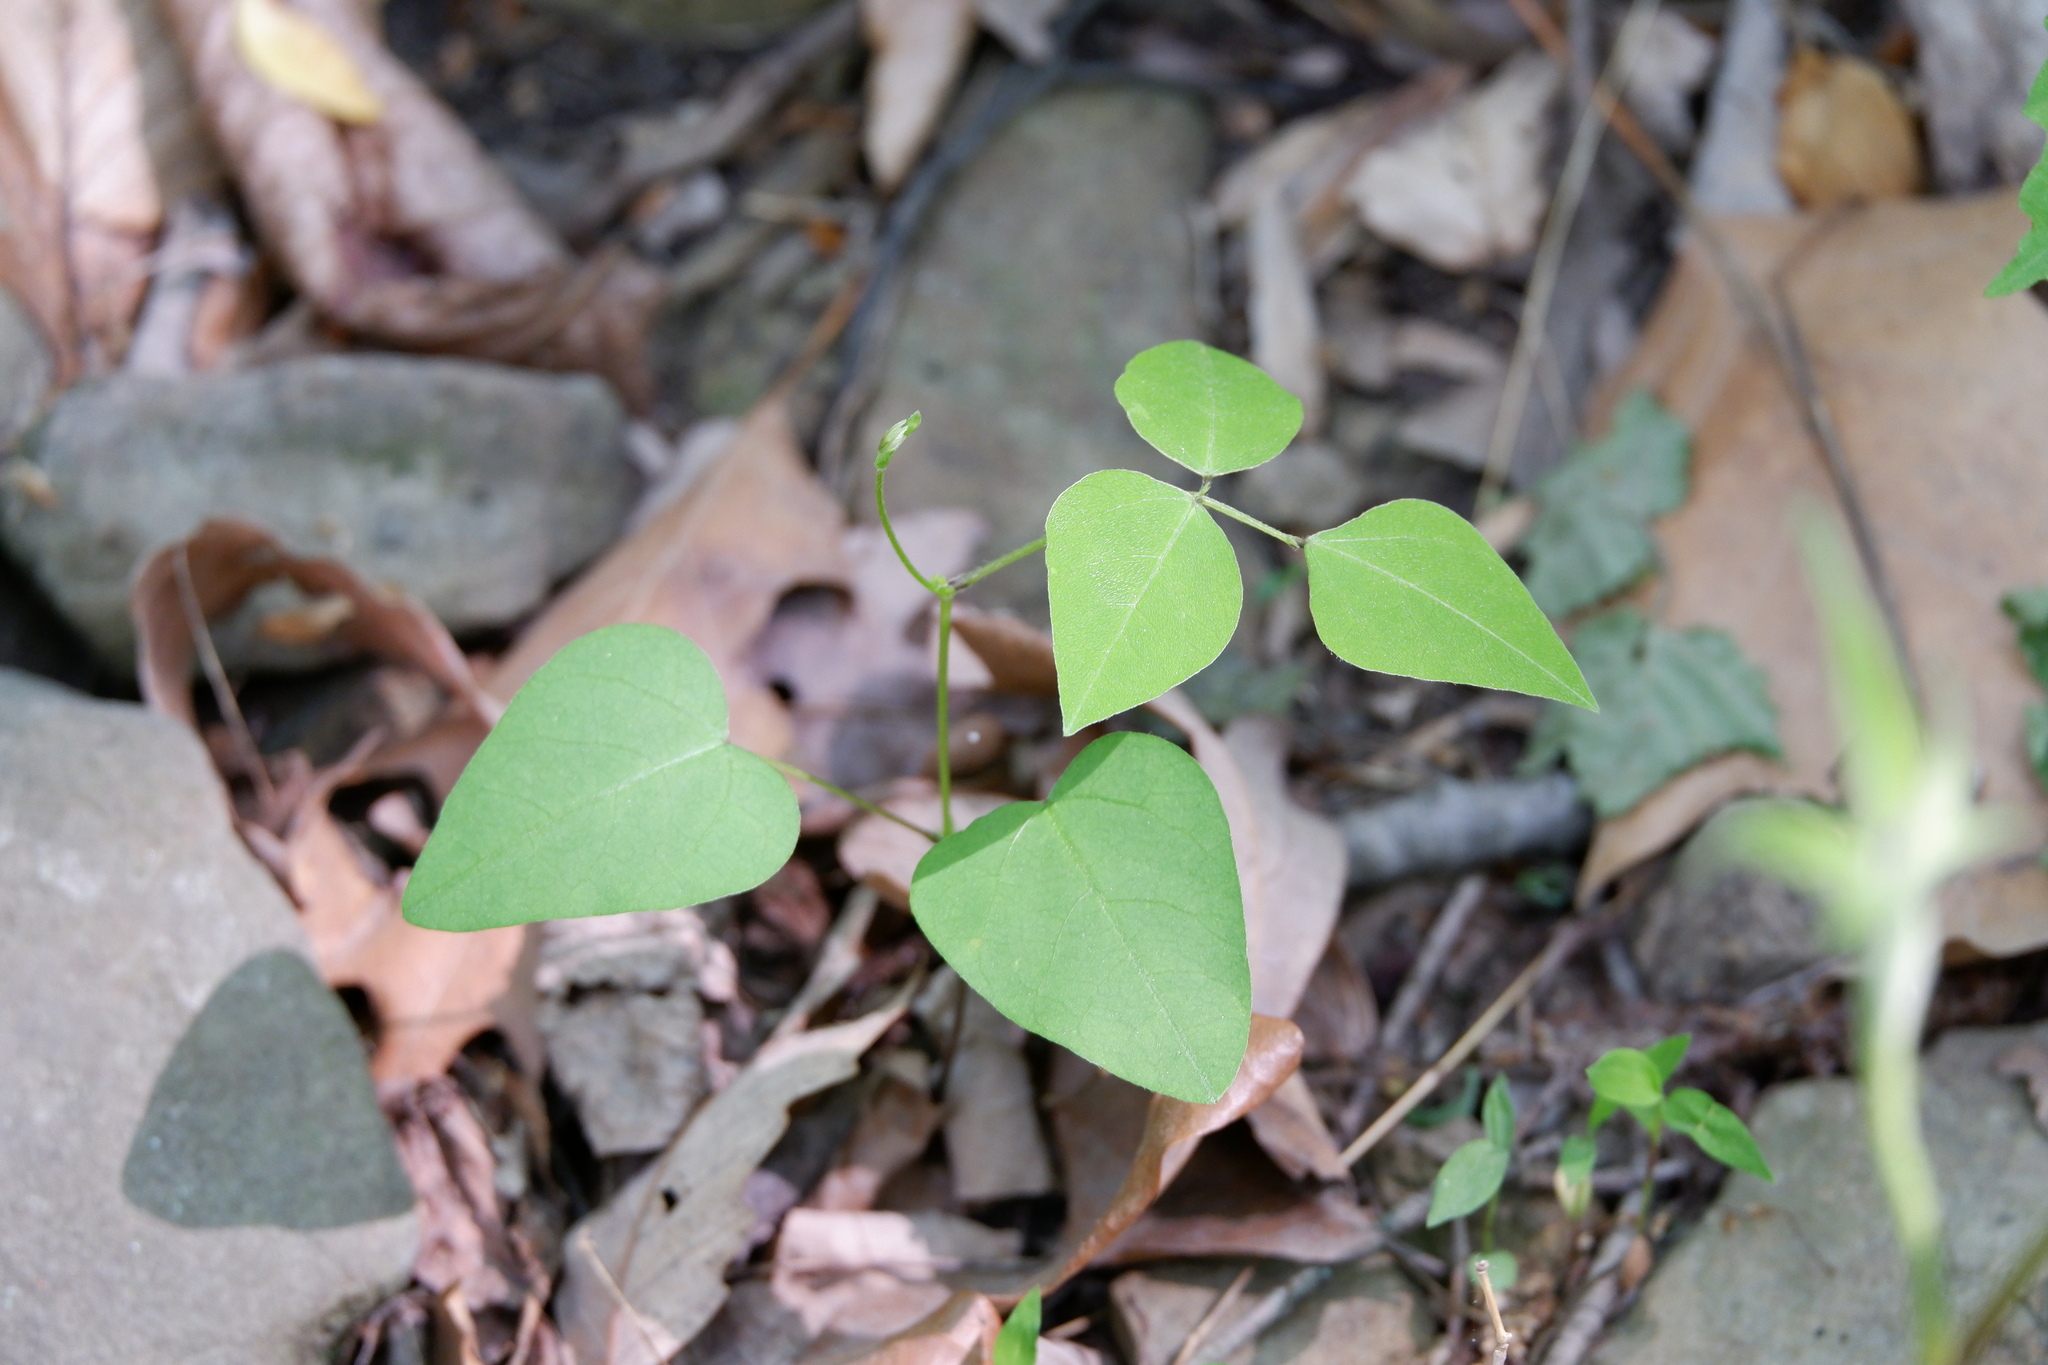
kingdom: Plantae
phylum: Tracheophyta
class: Magnoliopsida
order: Fabales
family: Fabaceae
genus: Amphicarpaea
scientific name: Amphicarpaea bracteata
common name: American hog peanut
